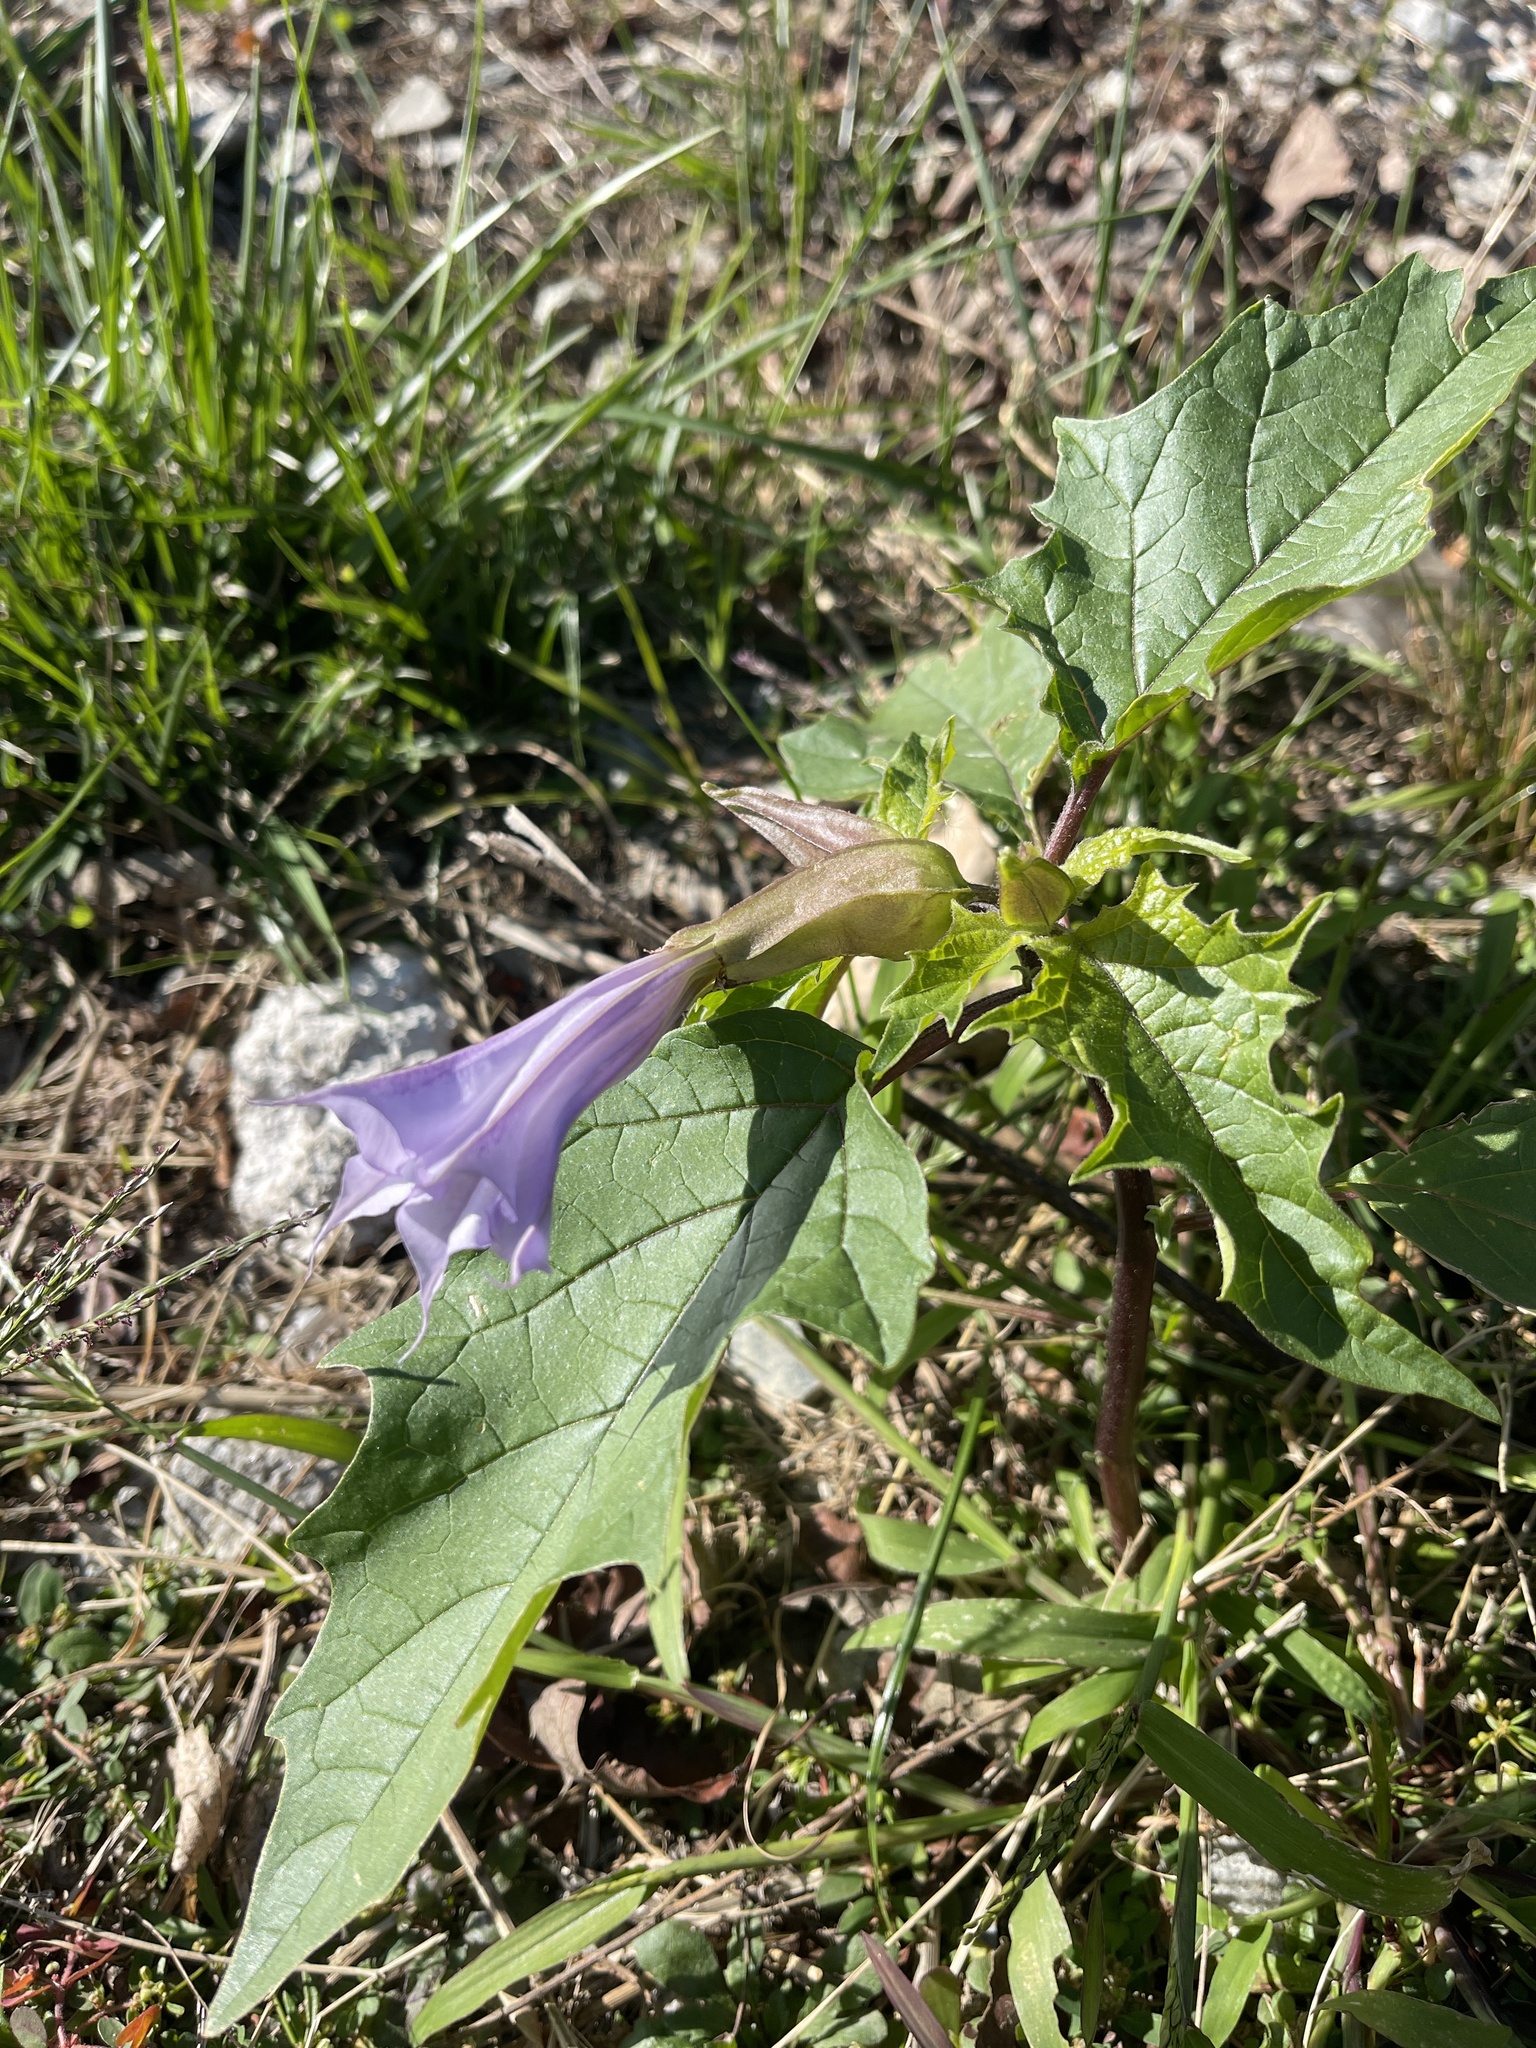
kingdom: Plantae
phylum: Tracheophyta
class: Magnoliopsida
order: Solanales
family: Solanaceae
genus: Datura
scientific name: Datura stramonium
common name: Thorn-apple
